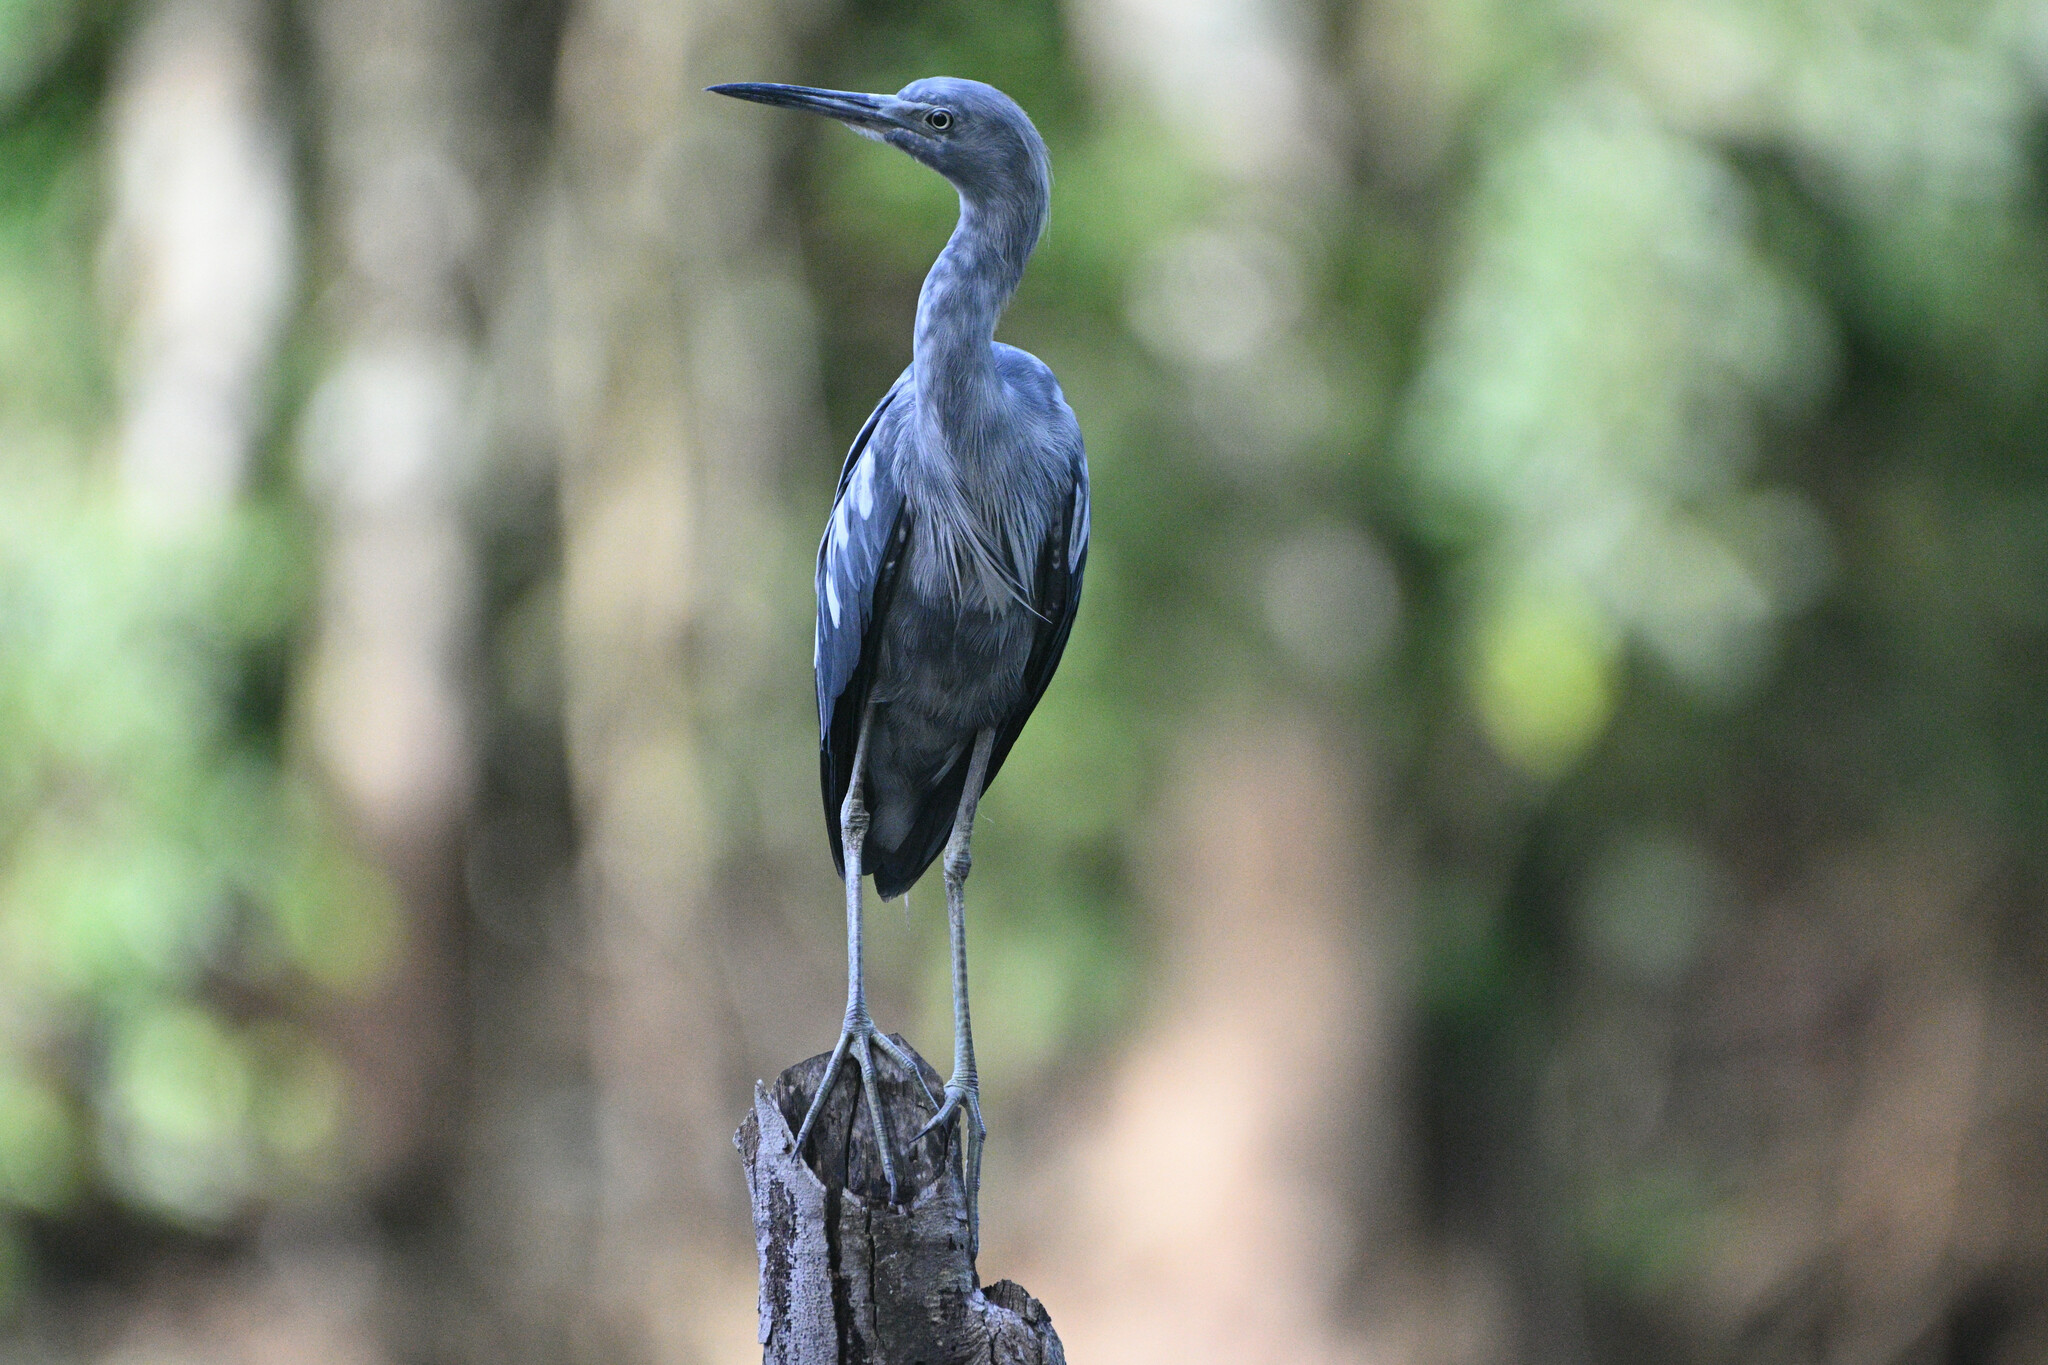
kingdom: Animalia
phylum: Chordata
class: Aves
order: Pelecaniformes
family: Ardeidae
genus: Egretta
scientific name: Egretta caerulea
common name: Little blue heron
